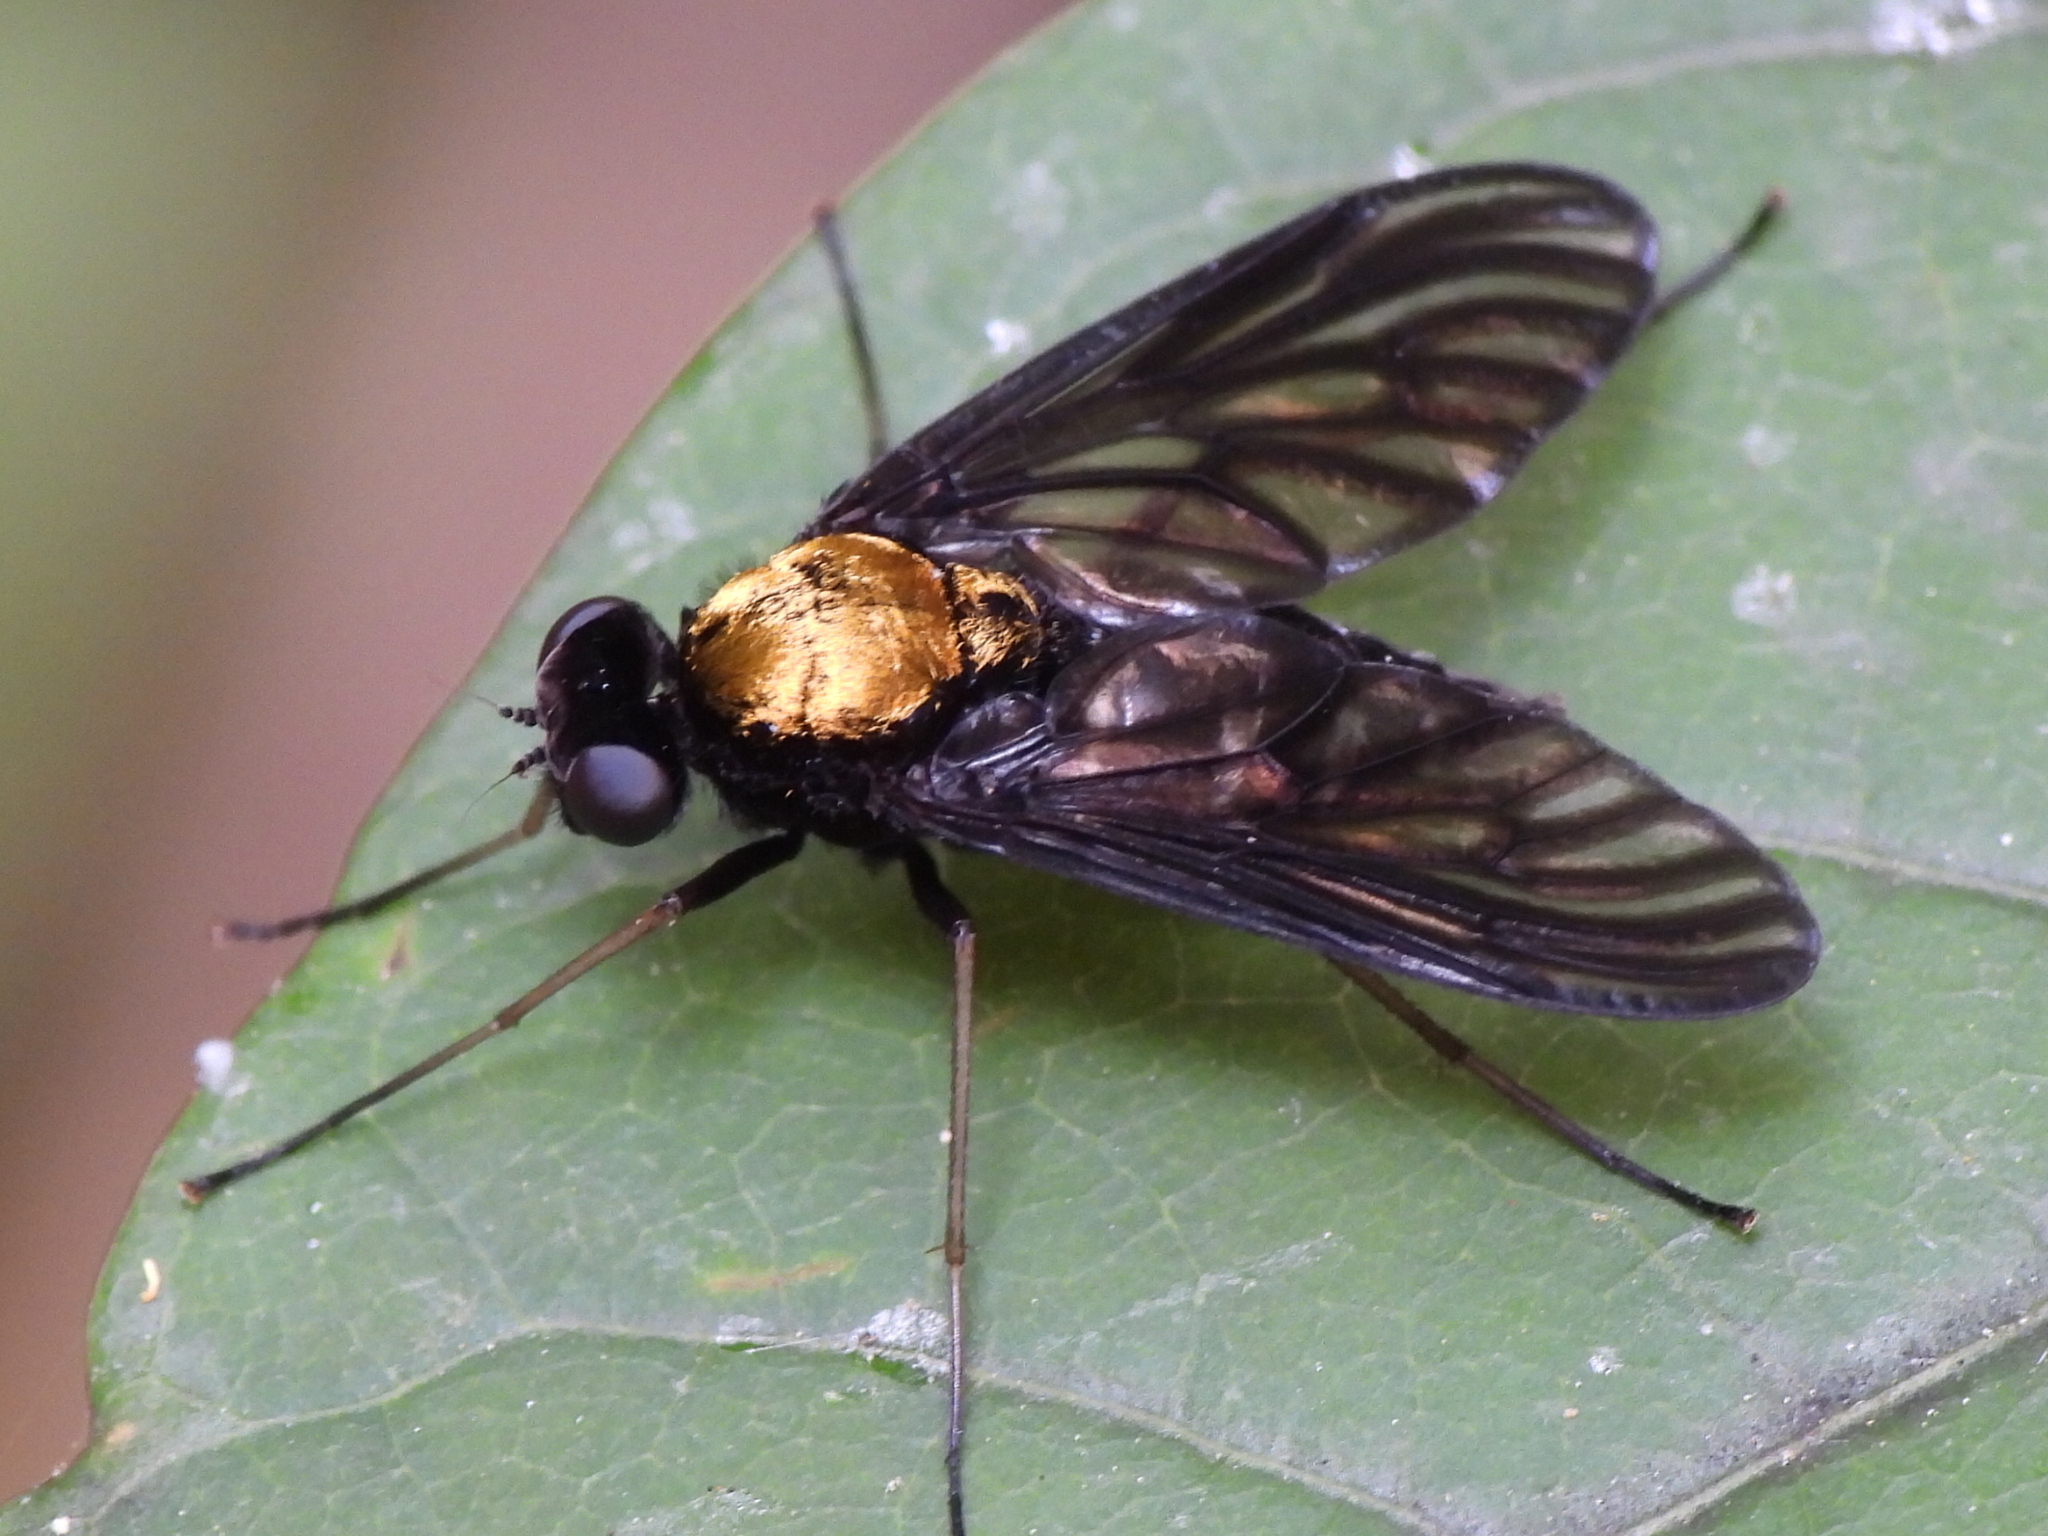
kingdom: Animalia
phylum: Arthropoda
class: Insecta
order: Diptera
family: Rhagionidae
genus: Chrysopilus
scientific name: Chrysopilus thoracicus
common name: Golden-backed snipe fly
